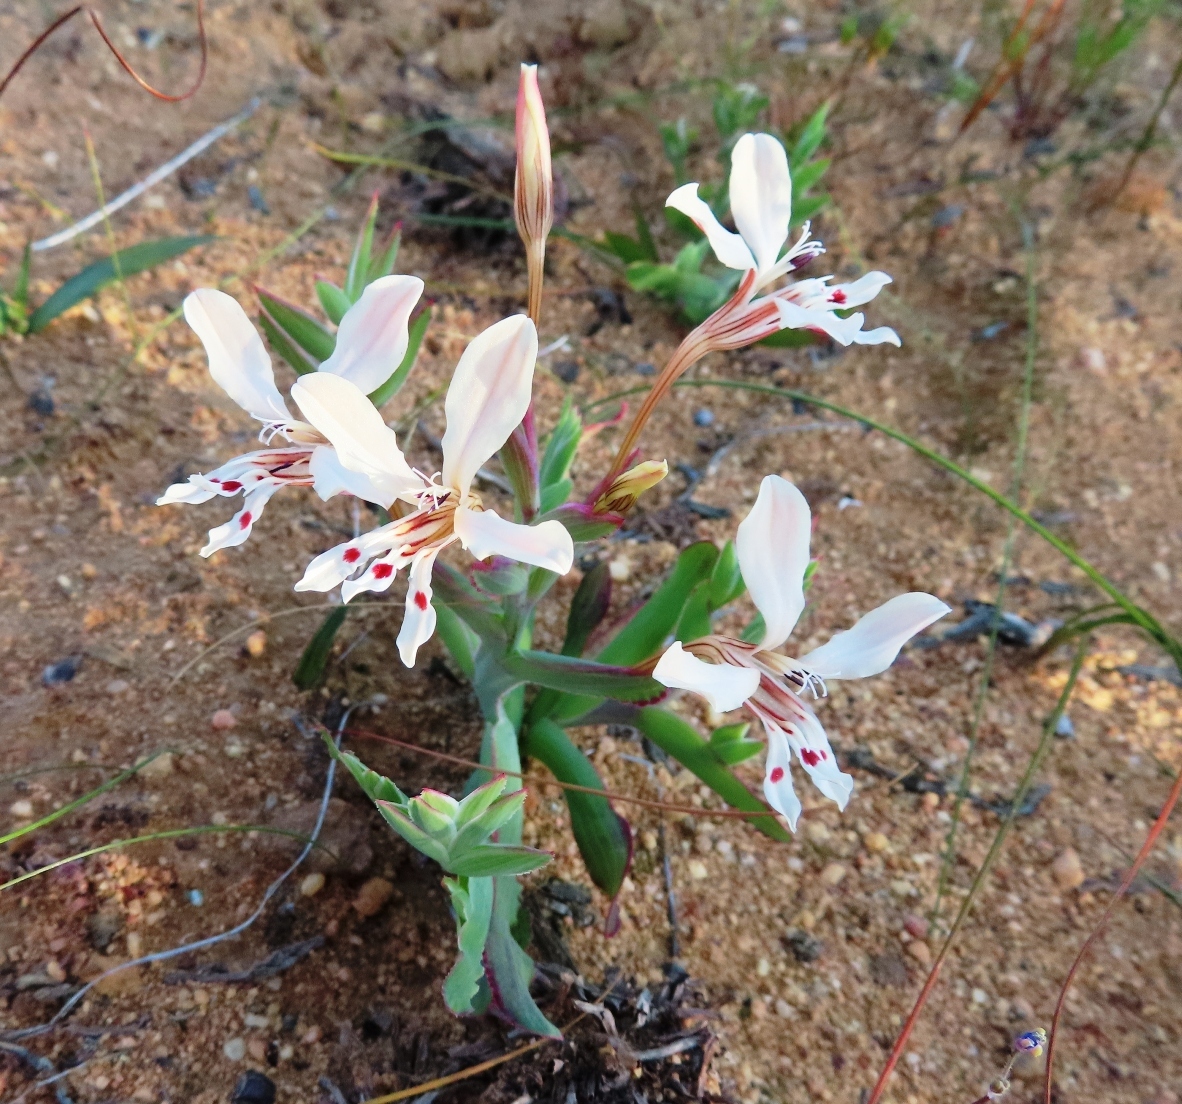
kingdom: Plantae
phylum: Tracheophyta
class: Liliopsida
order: Asparagales
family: Iridaceae
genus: Lapeirousia
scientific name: Lapeirousia fabricii
